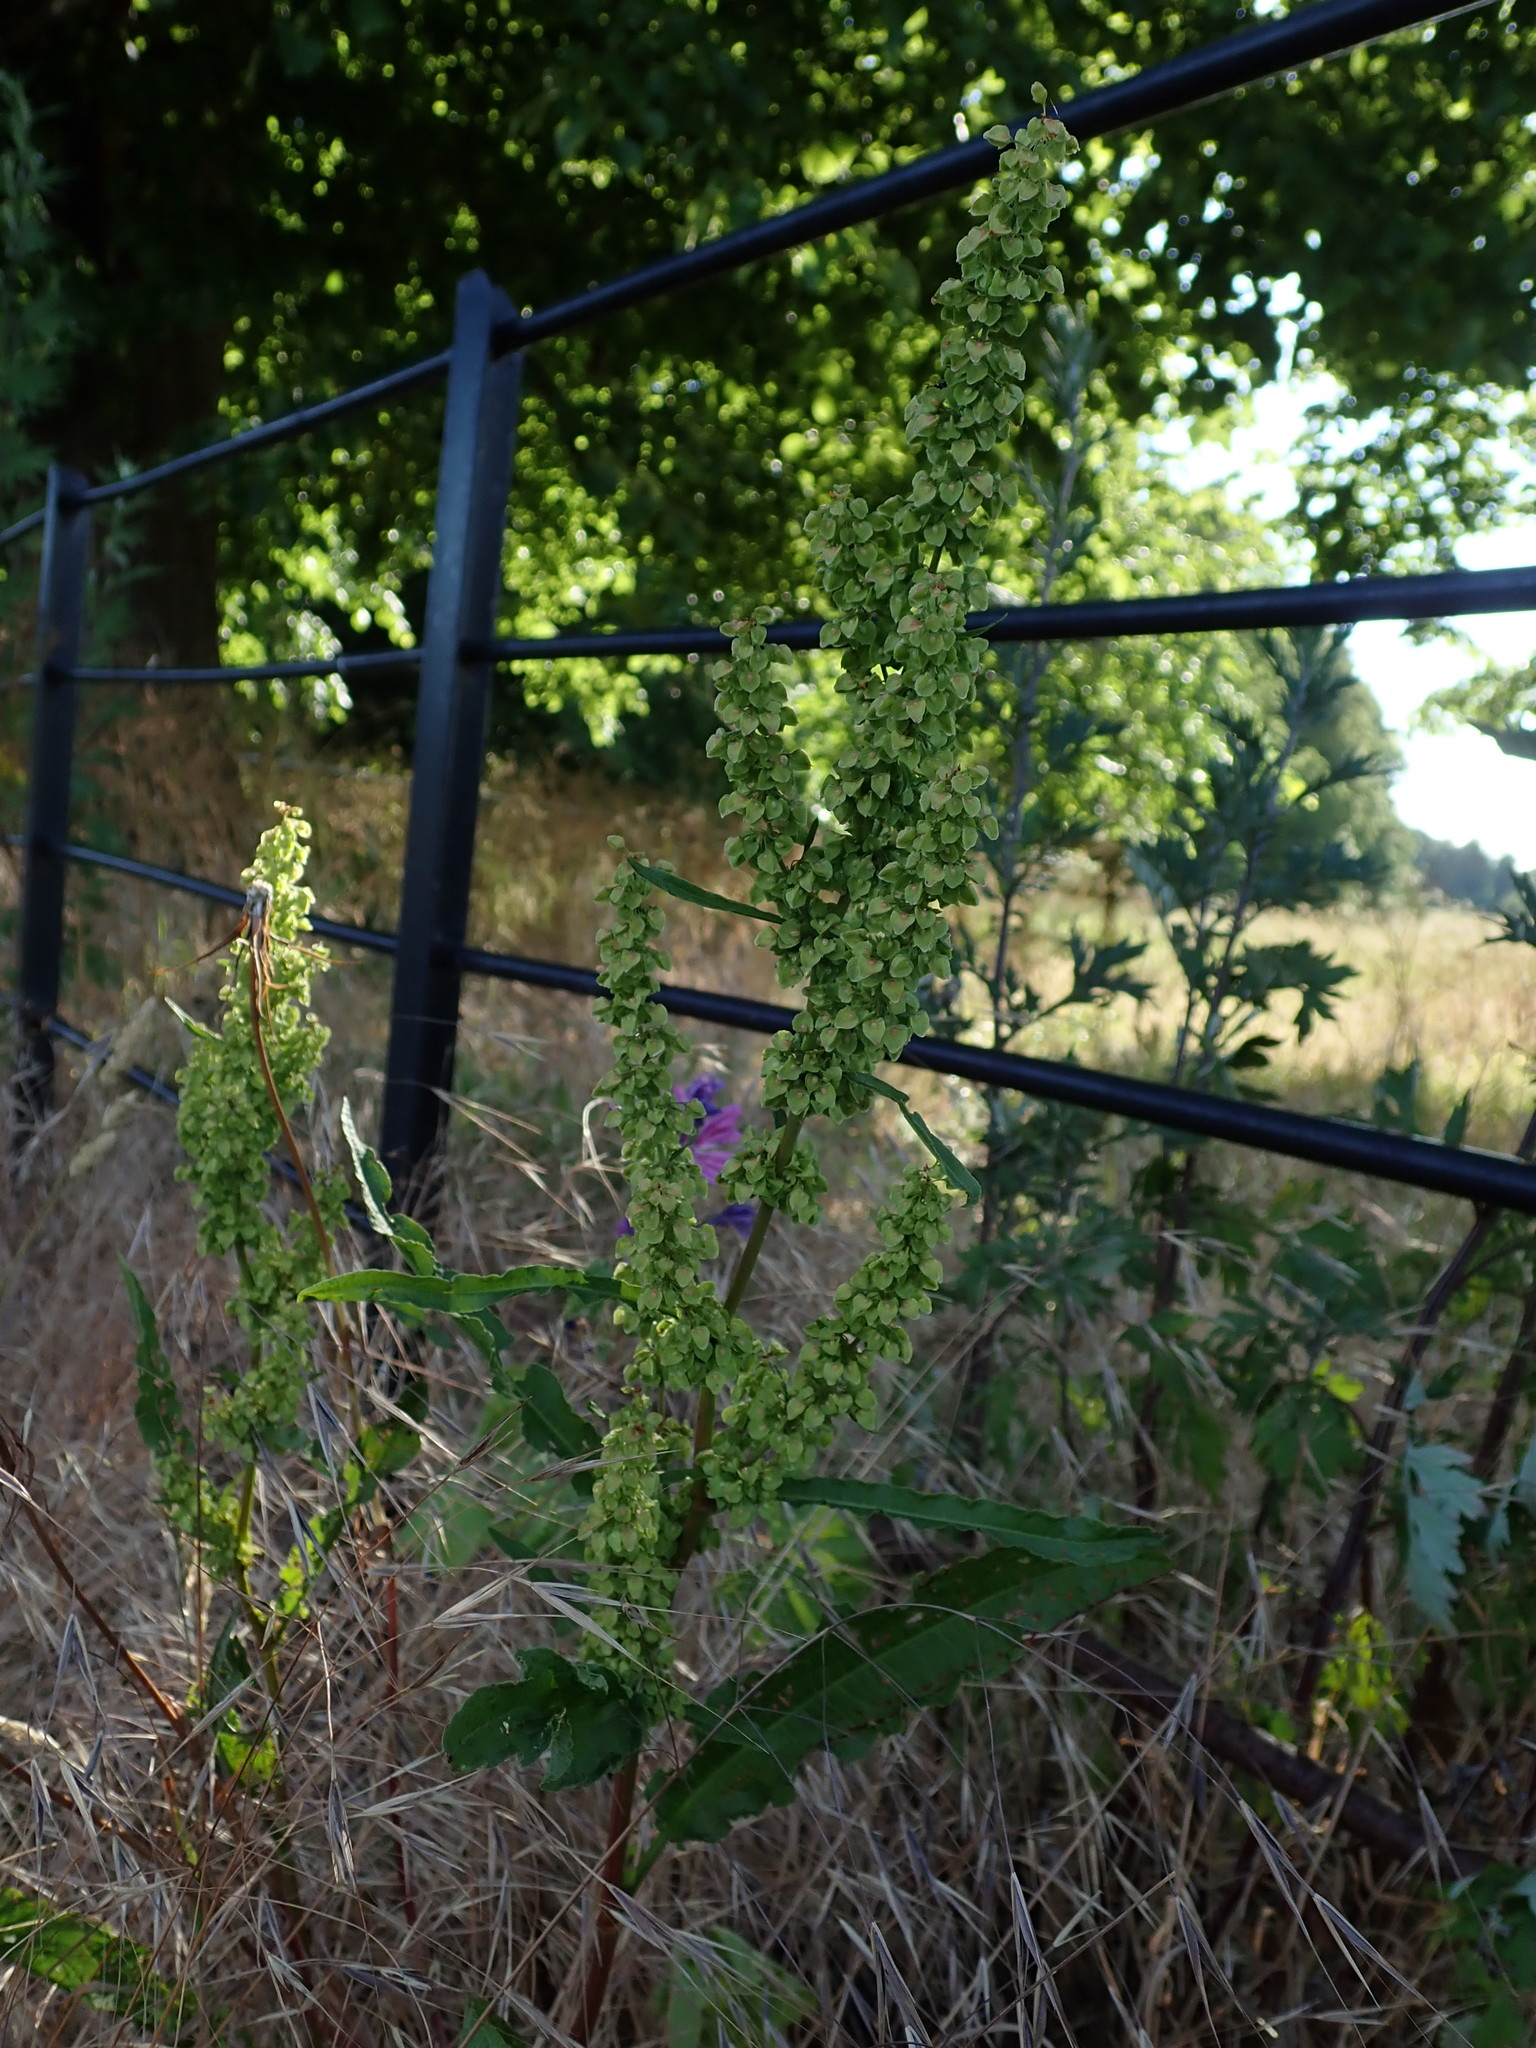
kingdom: Plantae
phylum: Tracheophyta
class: Magnoliopsida
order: Caryophyllales
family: Polygonaceae
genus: Rumex
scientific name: Rumex crispus
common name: Curled dock
